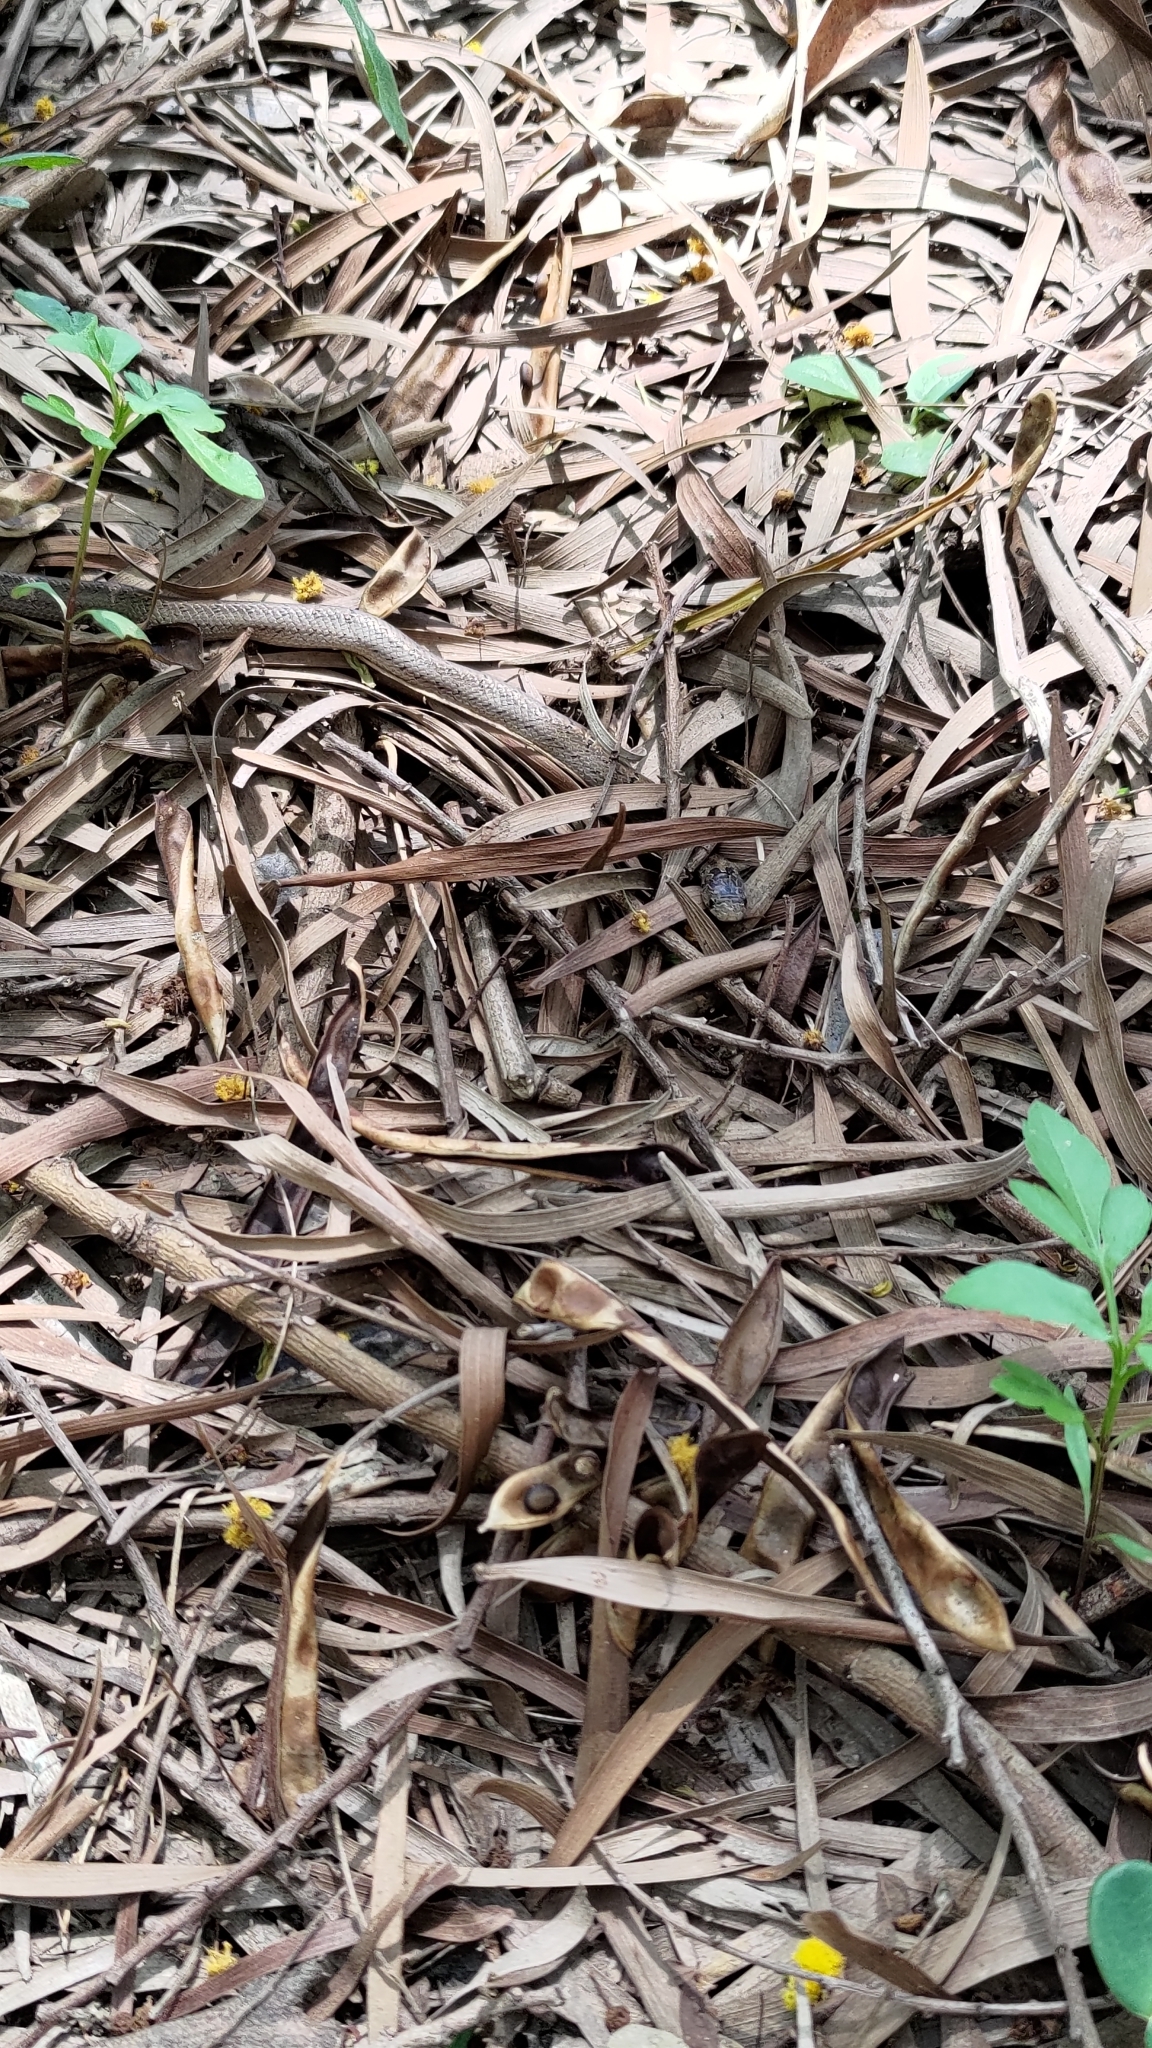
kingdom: Animalia
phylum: Chordata
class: Squamata
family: Colubridae
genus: Oligodon
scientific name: Oligodon formosanus
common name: Formosa kukri snake
